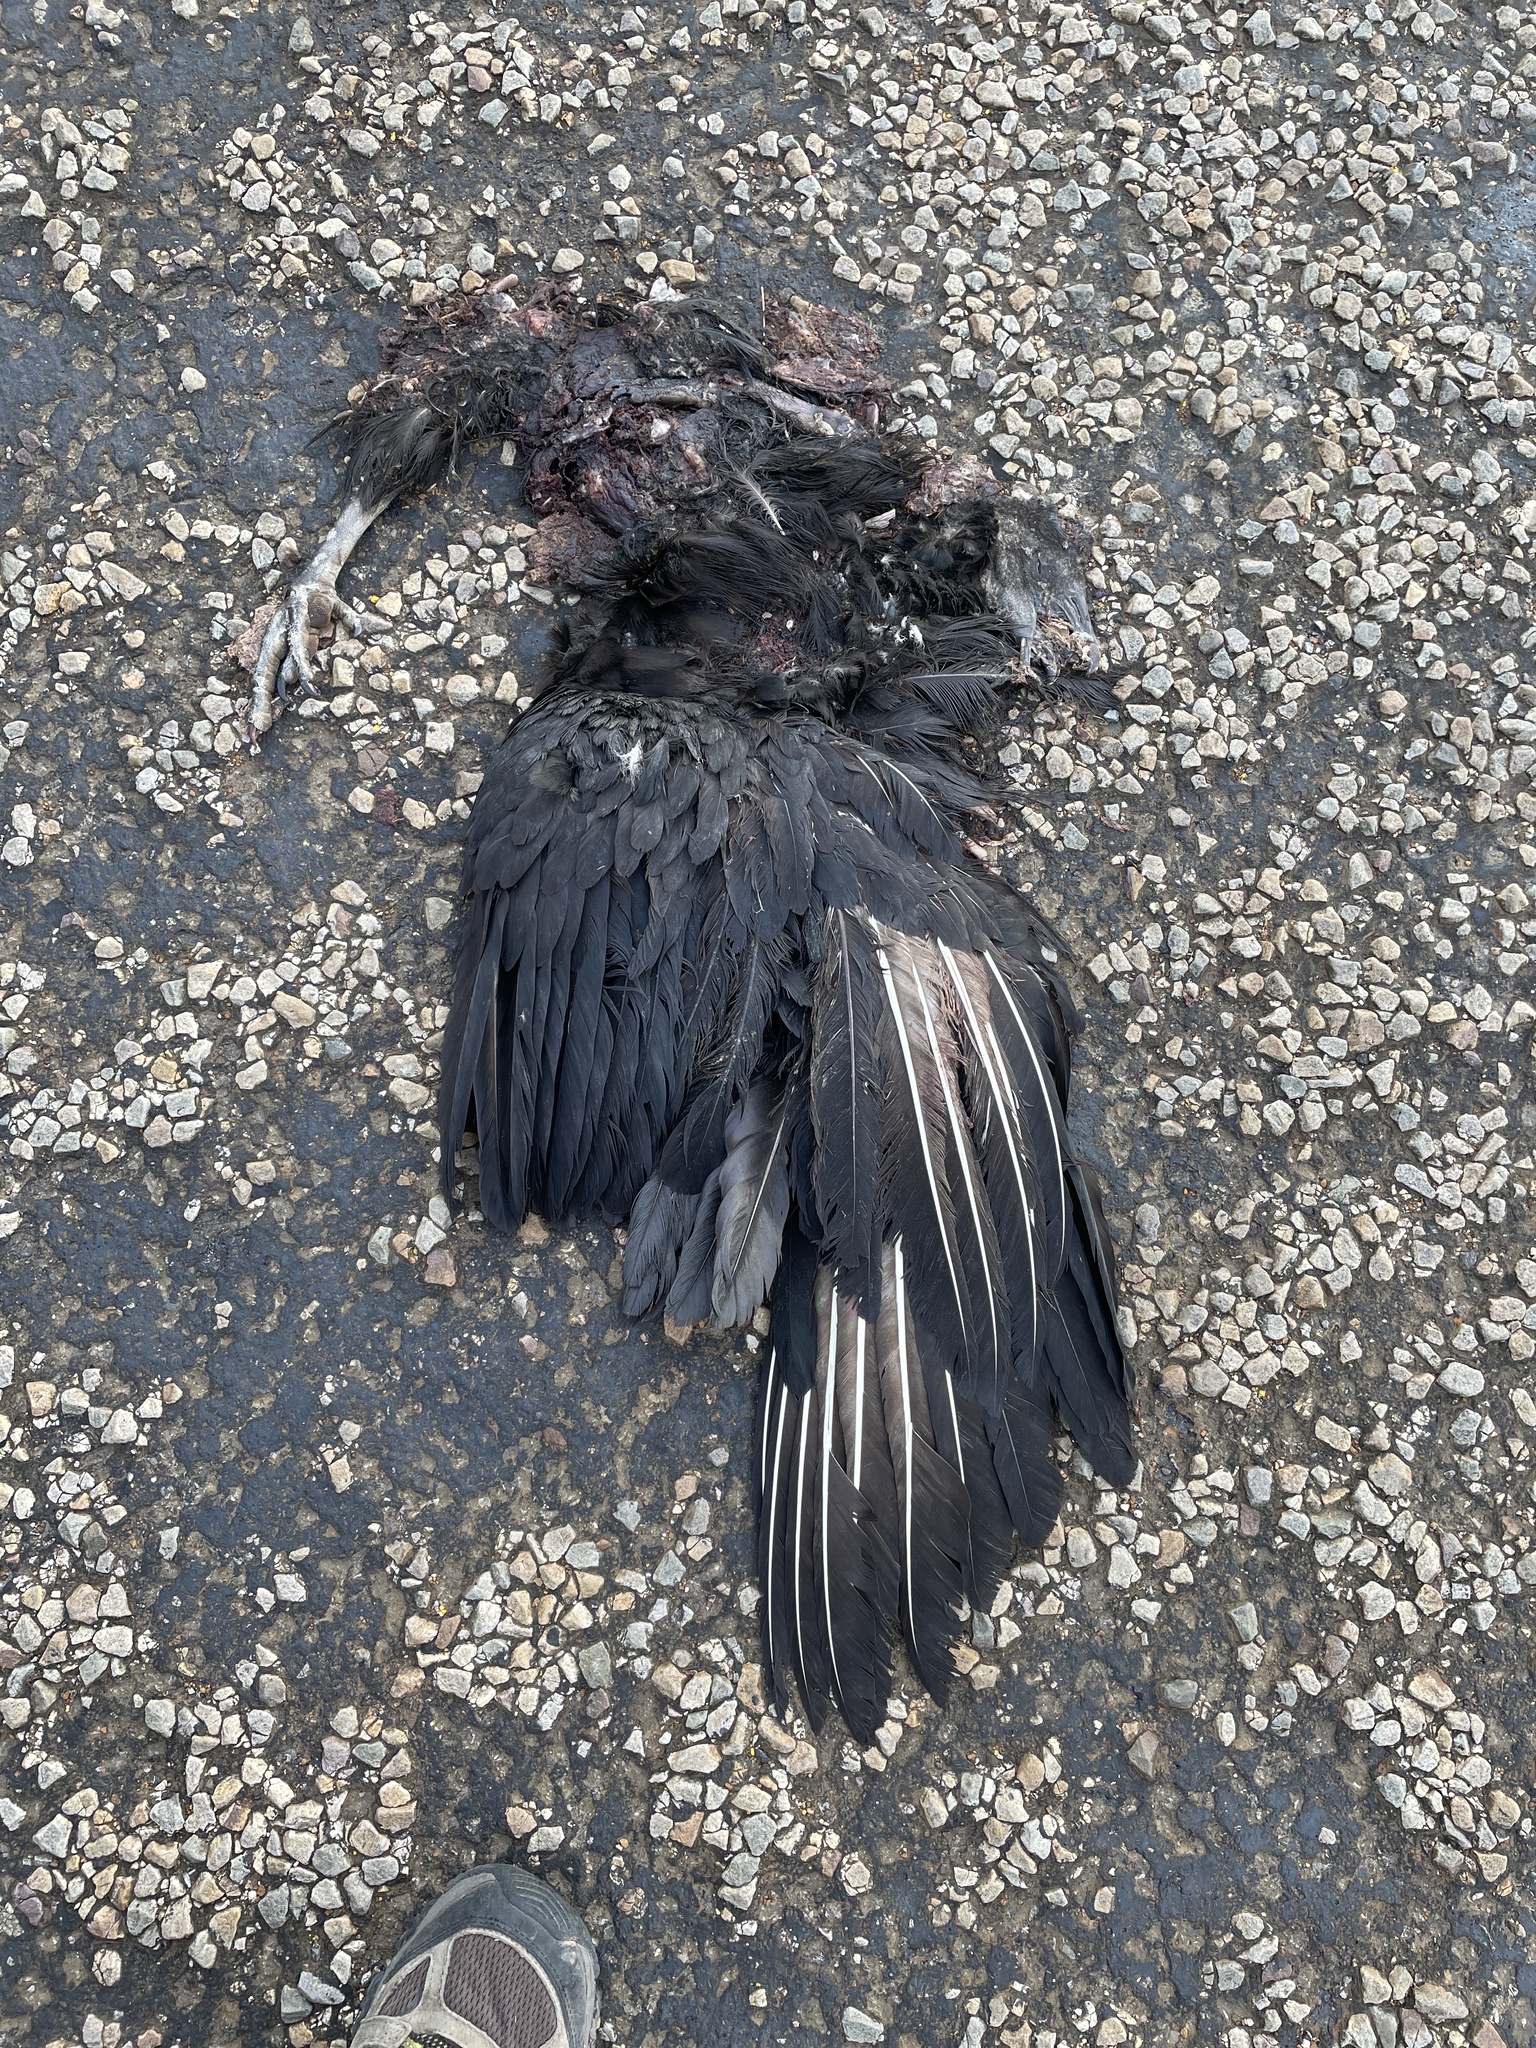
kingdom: Animalia
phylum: Chordata
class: Aves
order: Accipitriformes
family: Cathartidae
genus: Coragyps
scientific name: Coragyps atratus
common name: Black vulture
